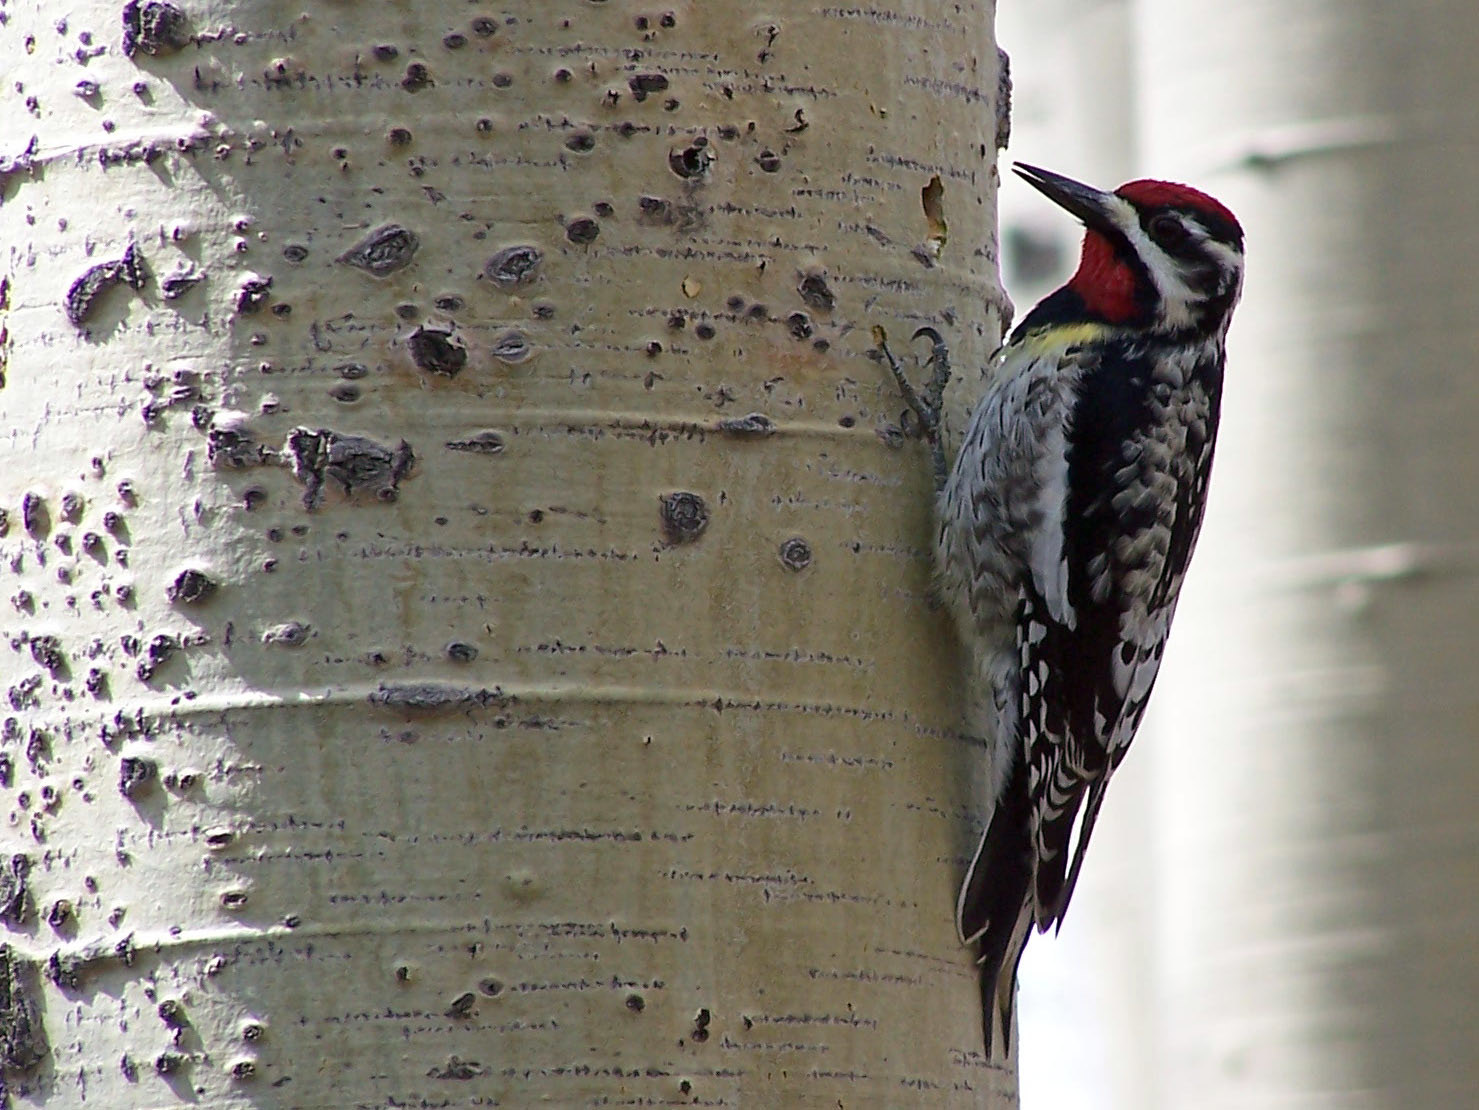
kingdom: Animalia
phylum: Chordata
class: Aves
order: Piciformes
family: Picidae
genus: Sphyrapicus
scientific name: Sphyrapicus varius
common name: Yellow-bellied sapsucker
